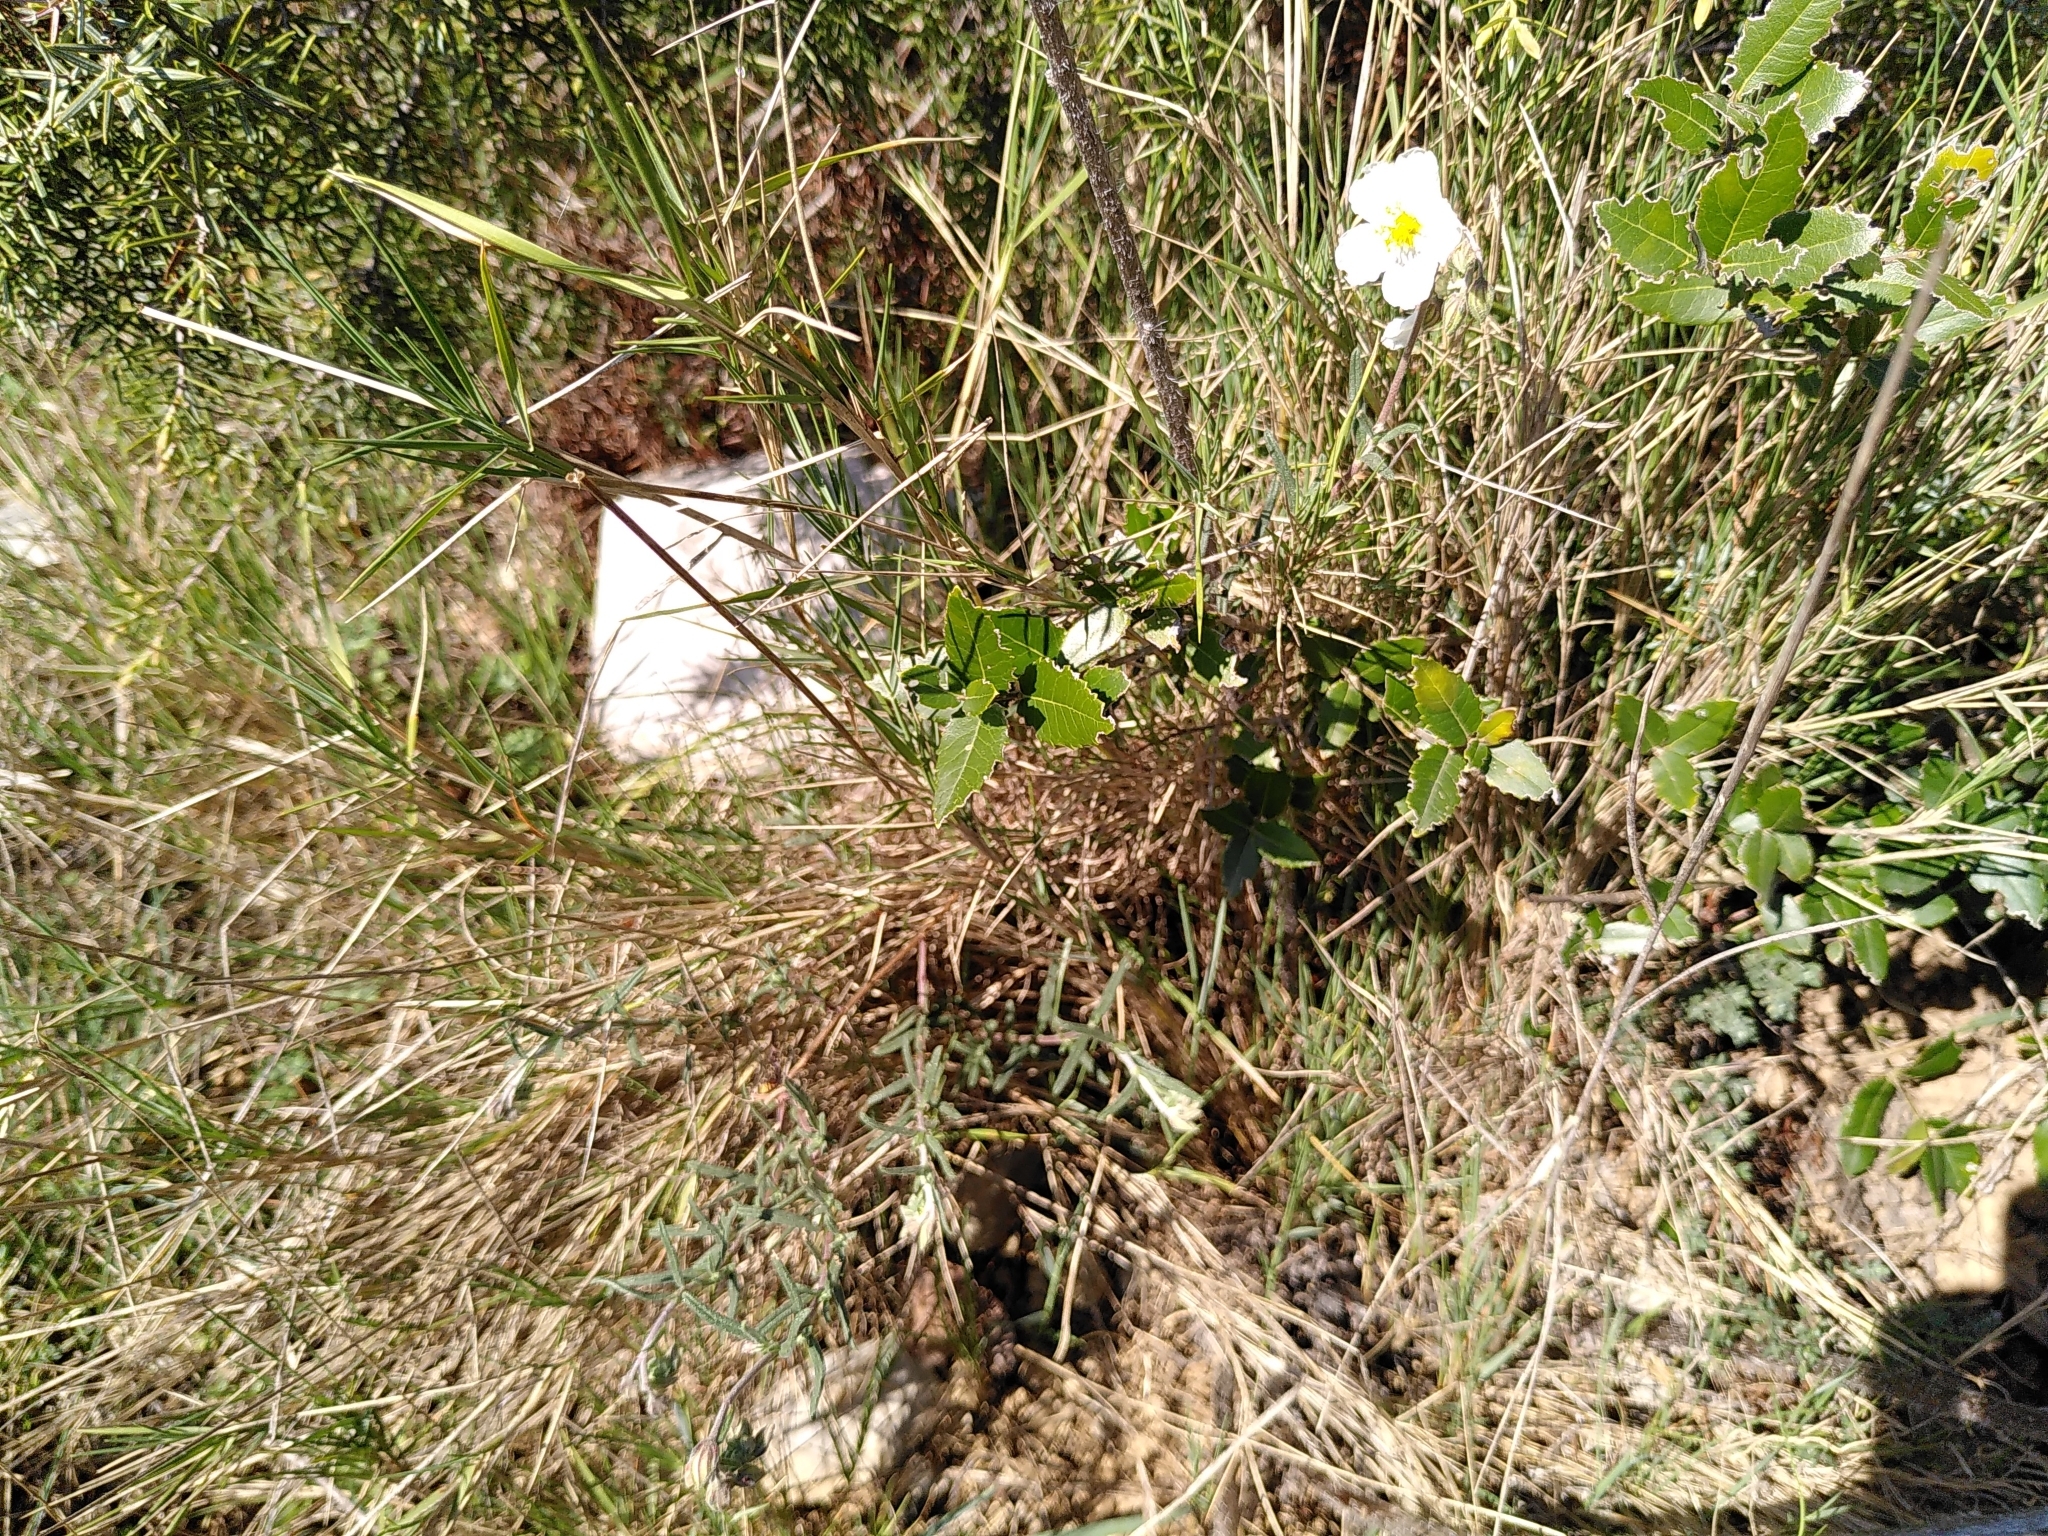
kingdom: Plantae
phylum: Tracheophyta
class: Magnoliopsida
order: Malvales
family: Cistaceae
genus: Helianthemum
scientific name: Helianthemum apenninum
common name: White rock-rose
